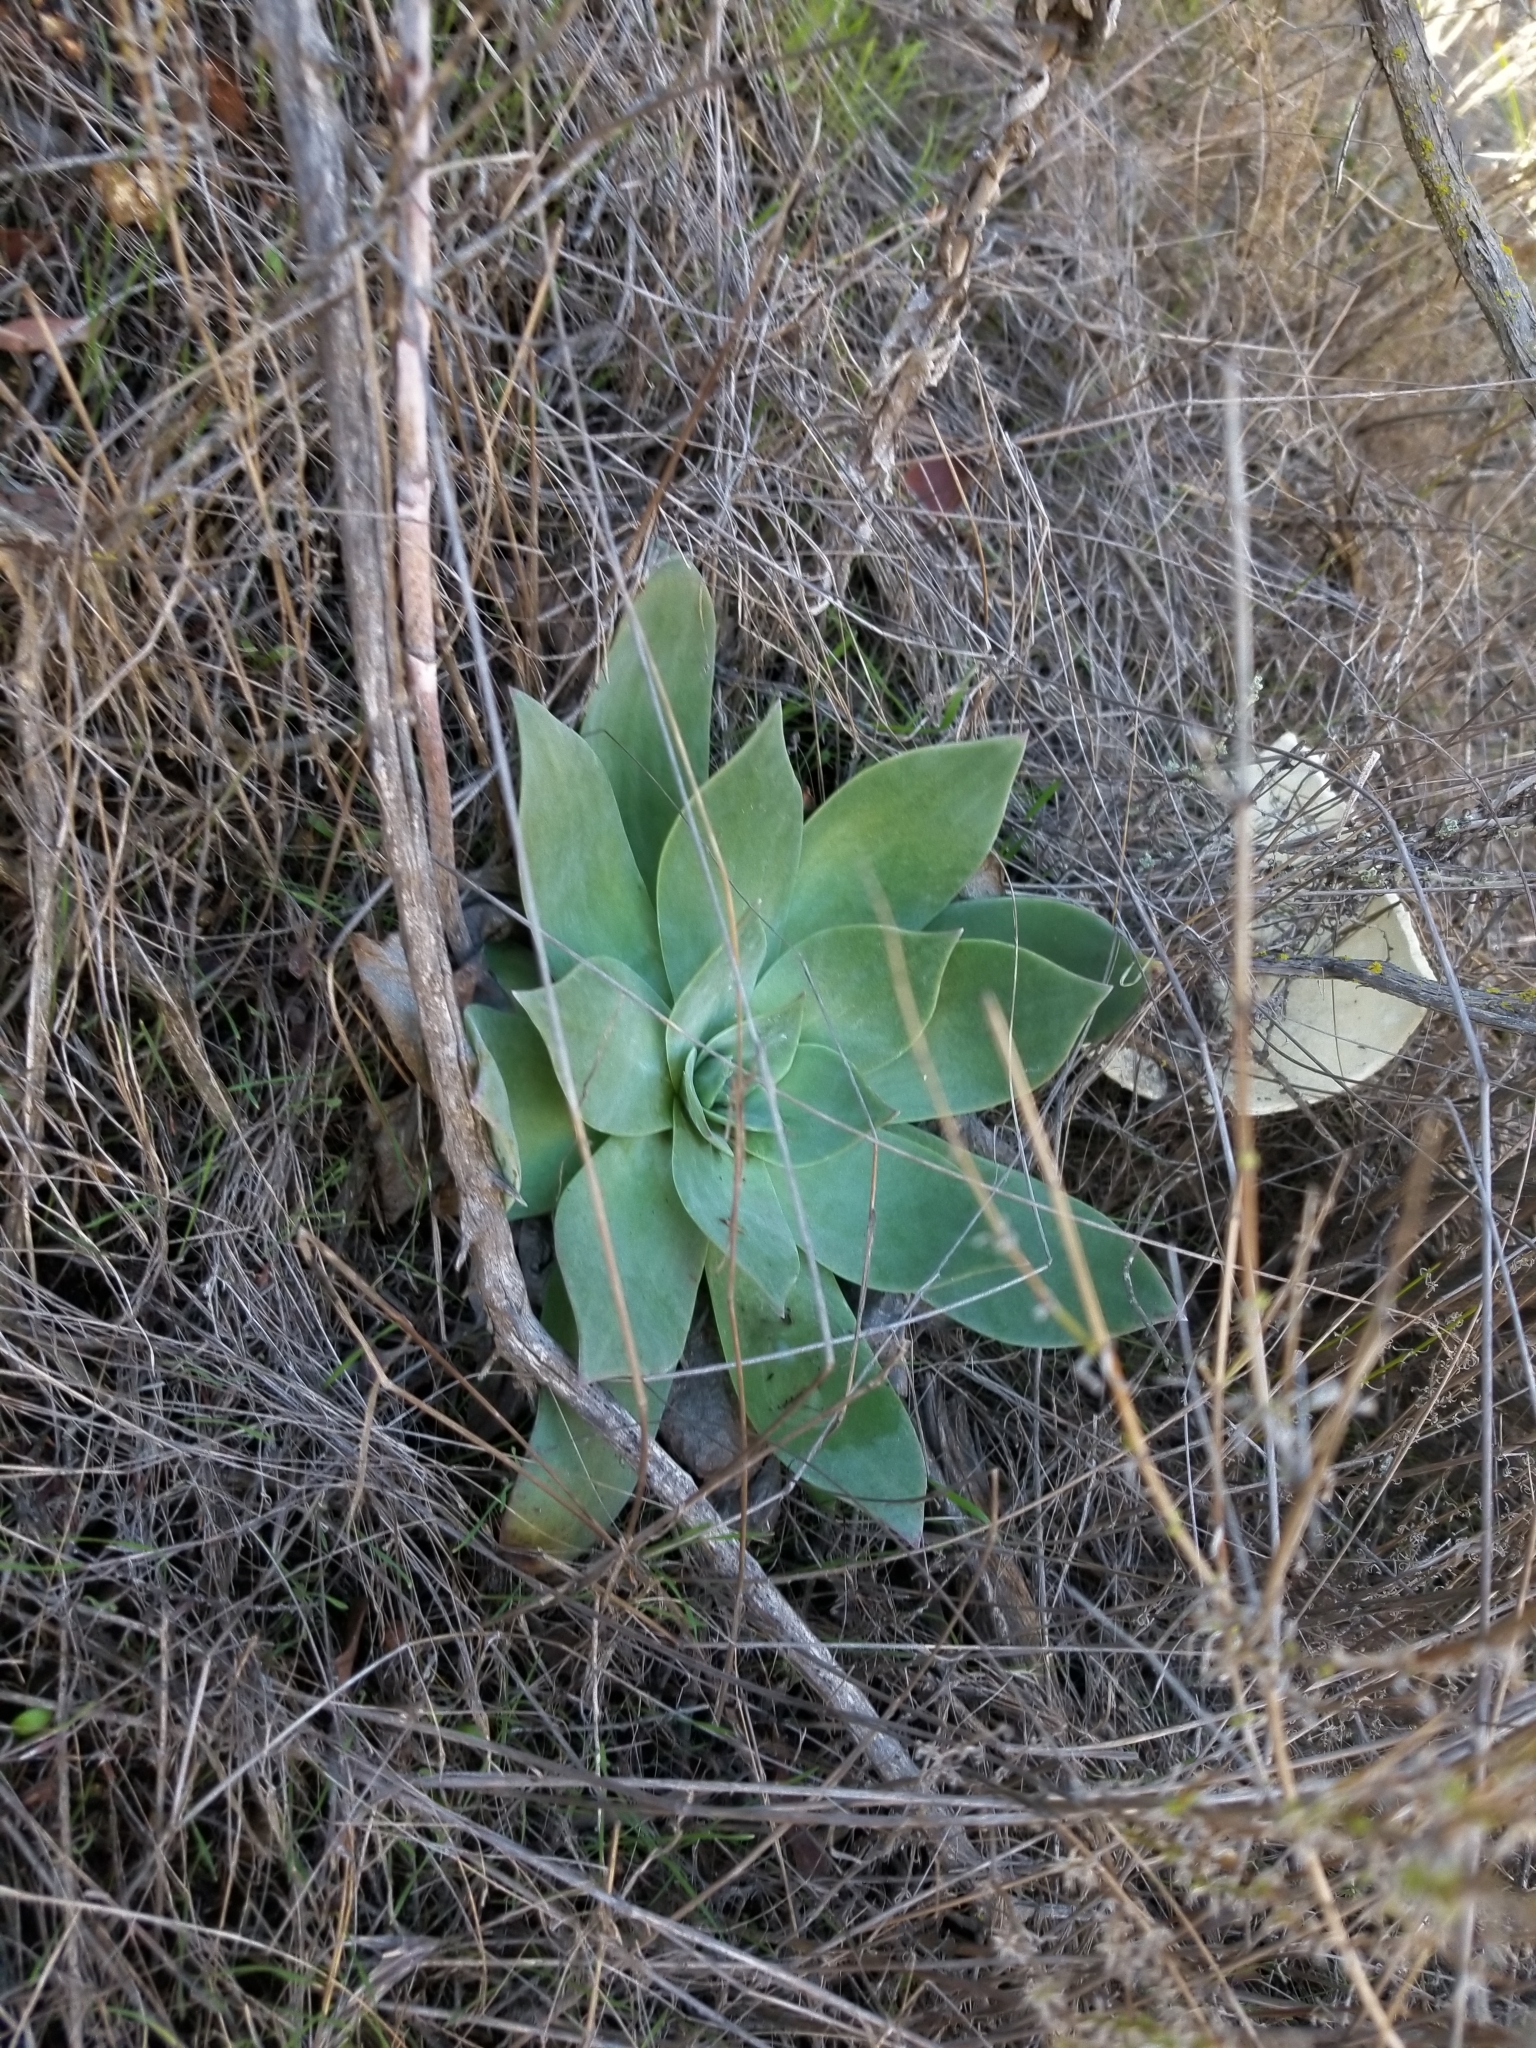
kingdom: Plantae
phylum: Tracheophyta
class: Magnoliopsida
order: Saxifragales
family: Crassulaceae
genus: Dudleya
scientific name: Dudleya pulverulenta
